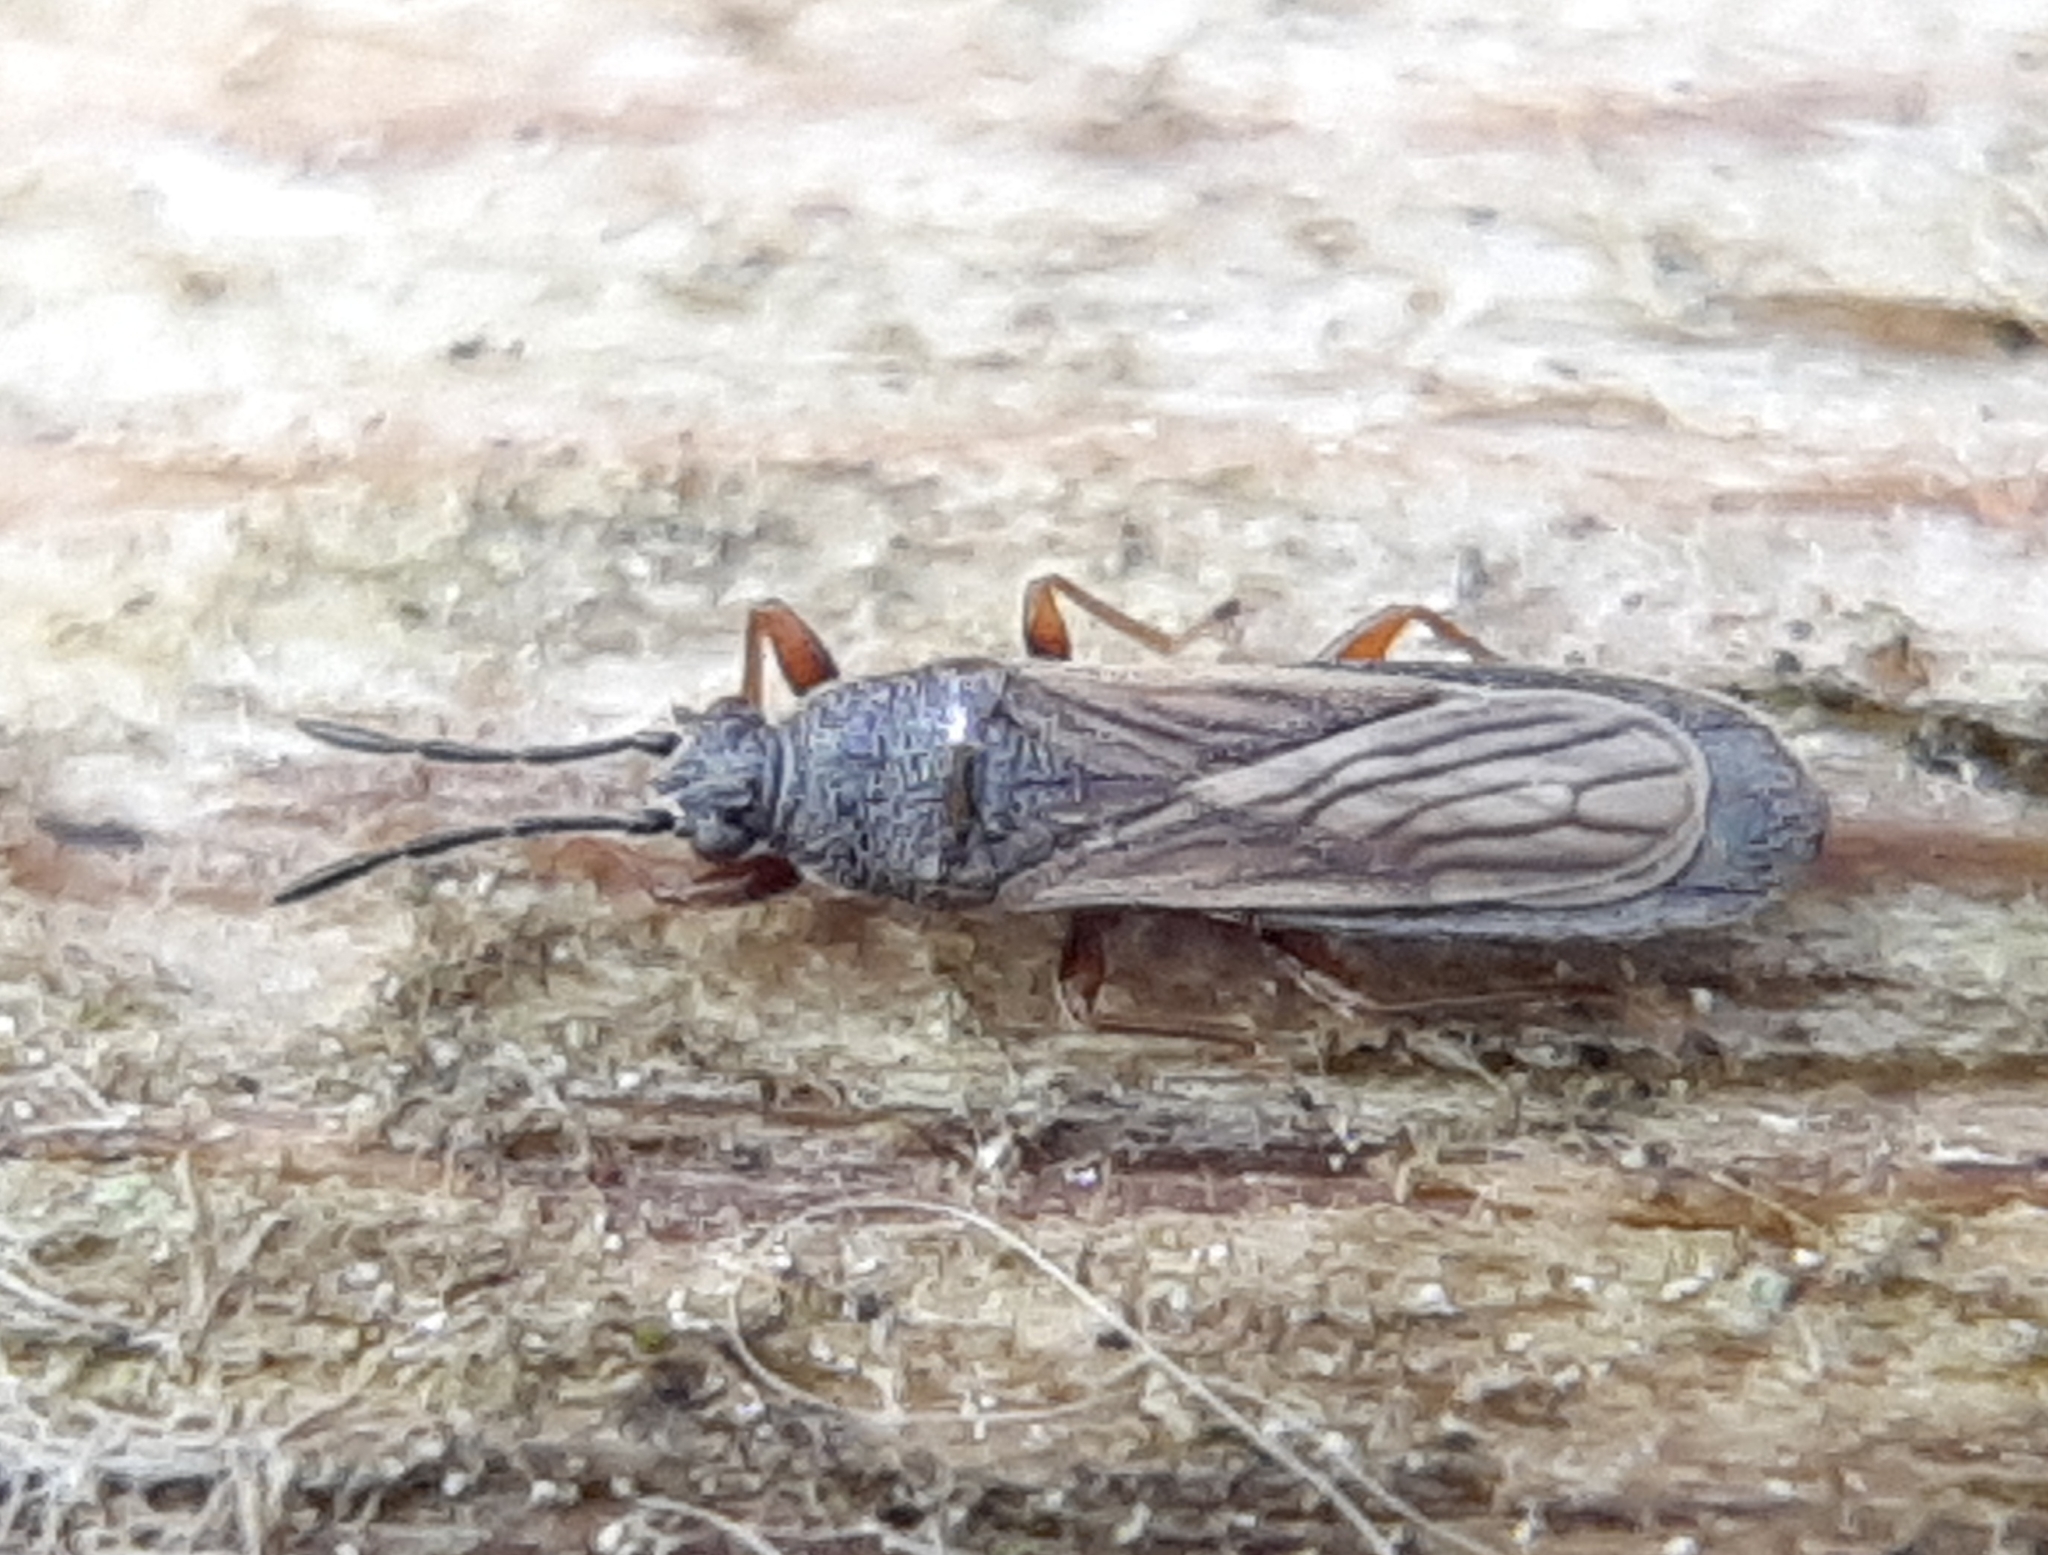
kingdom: Animalia
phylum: Arthropoda
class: Insecta
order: Hemiptera
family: Blissidae
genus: Ischnodemus
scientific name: Ischnodemus falicus
